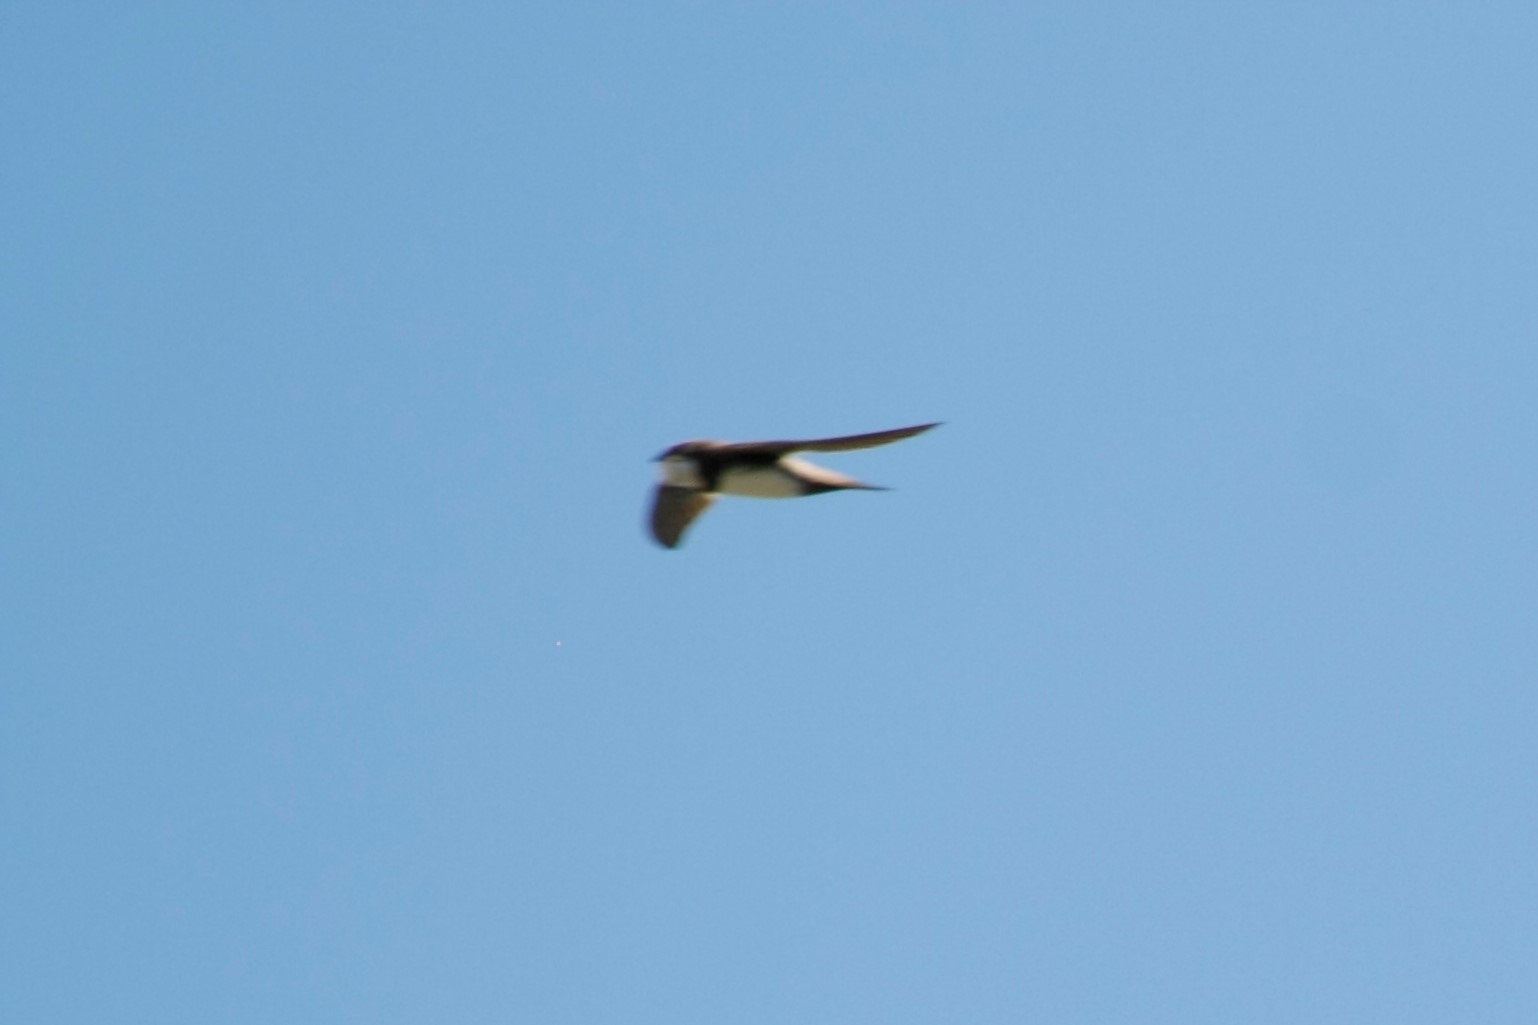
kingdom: Animalia
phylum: Chordata
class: Aves
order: Apodiformes
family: Apodidae
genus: Tachymarptis
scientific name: Tachymarptis melba
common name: Alpine swift
